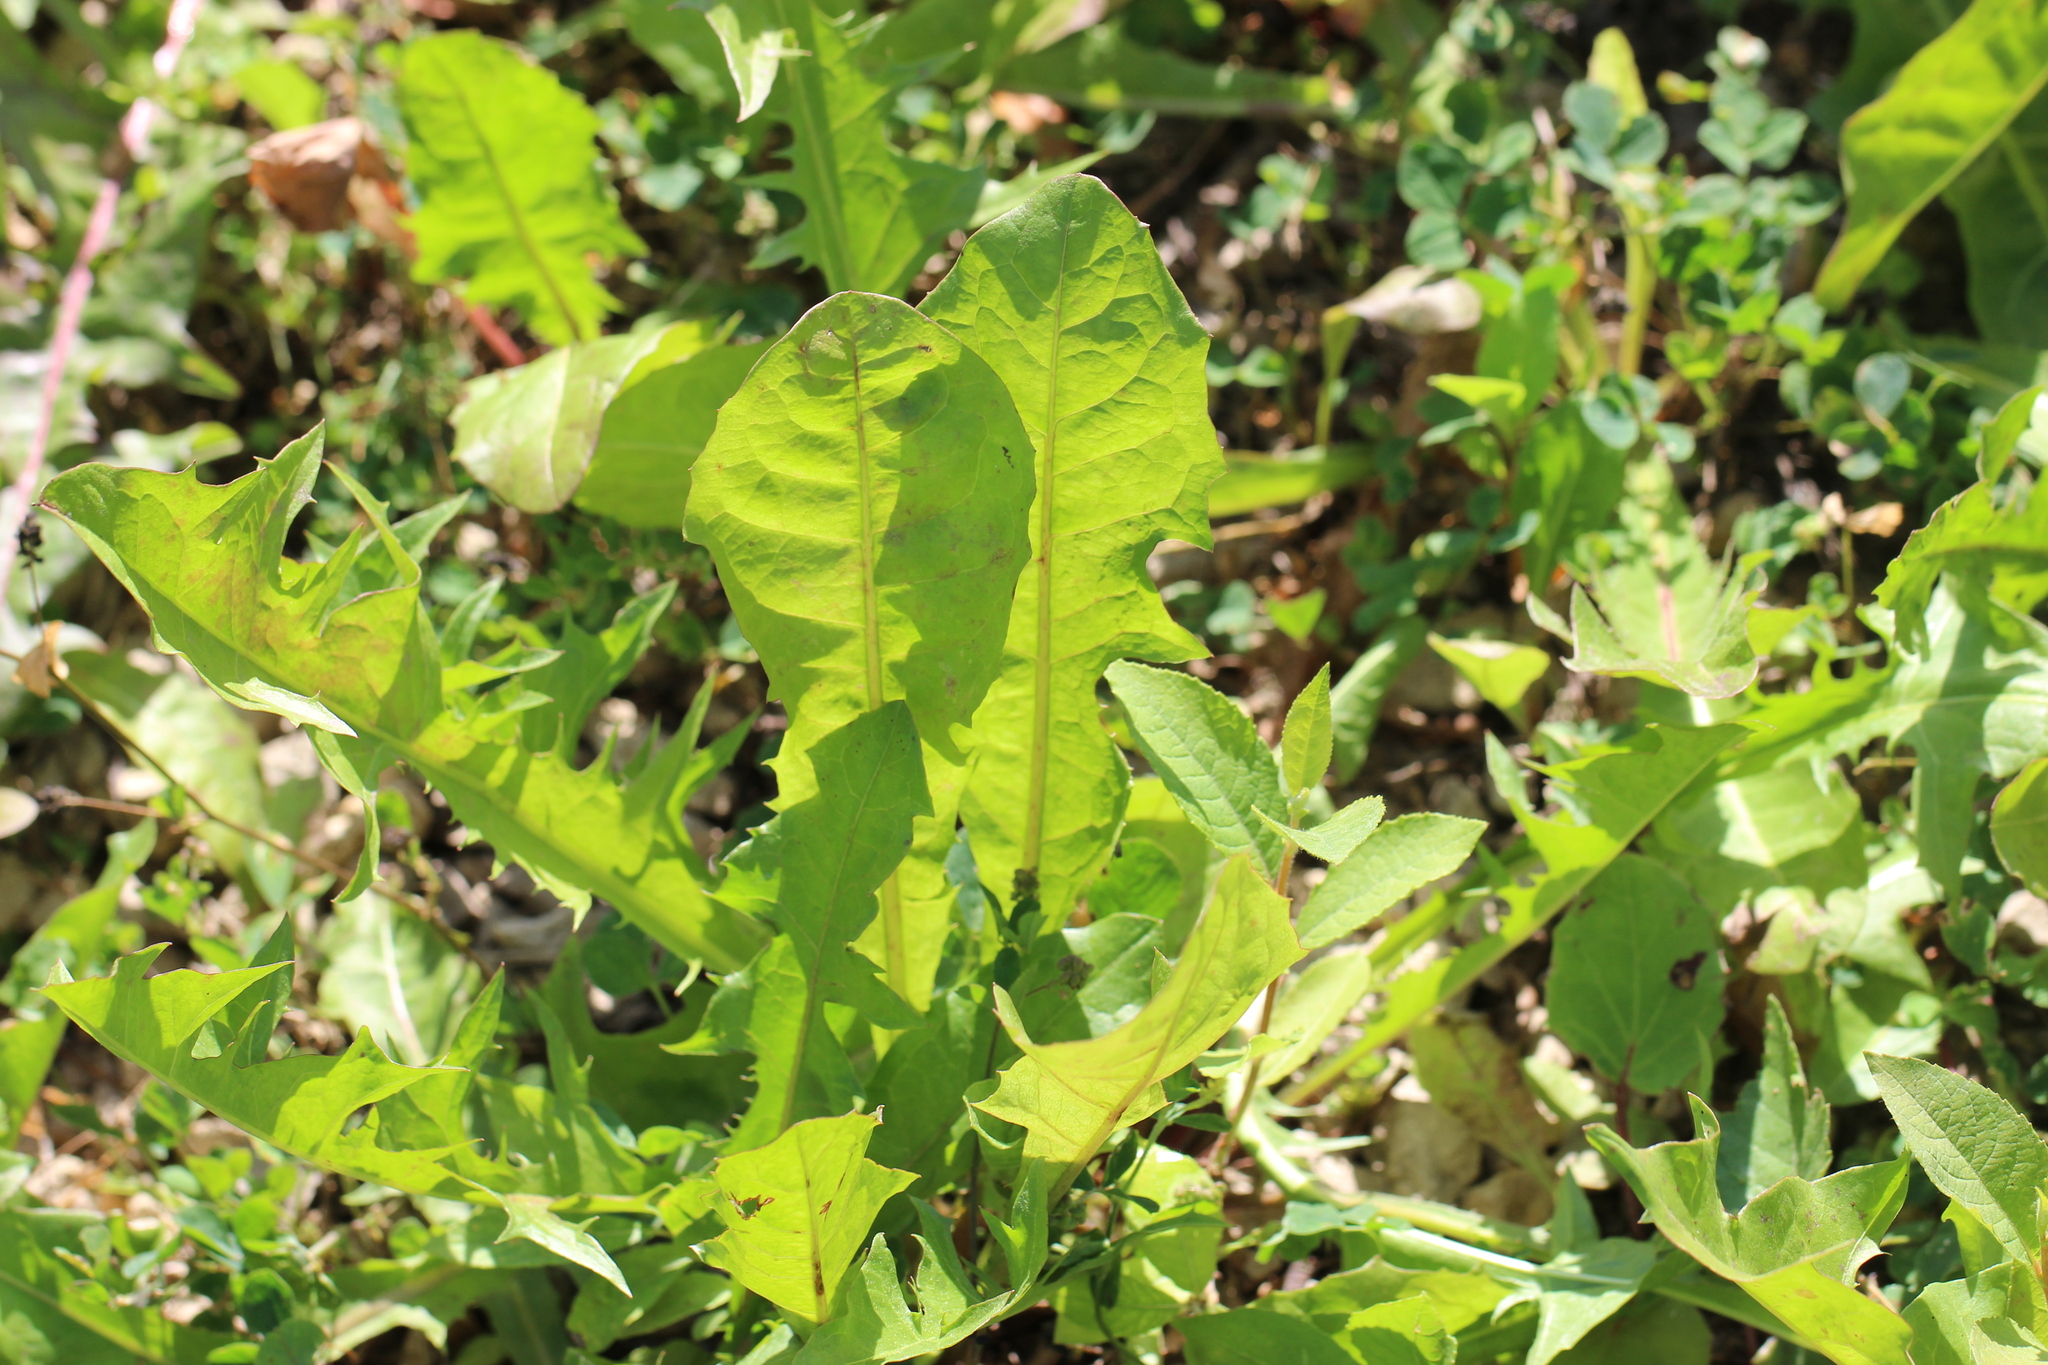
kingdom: Plantae
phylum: Tracheophyta
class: Magnoliopsida
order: Asterales
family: Asteraceae
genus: Taraxacum
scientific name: Taraxacum officinale
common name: Common dandelion
